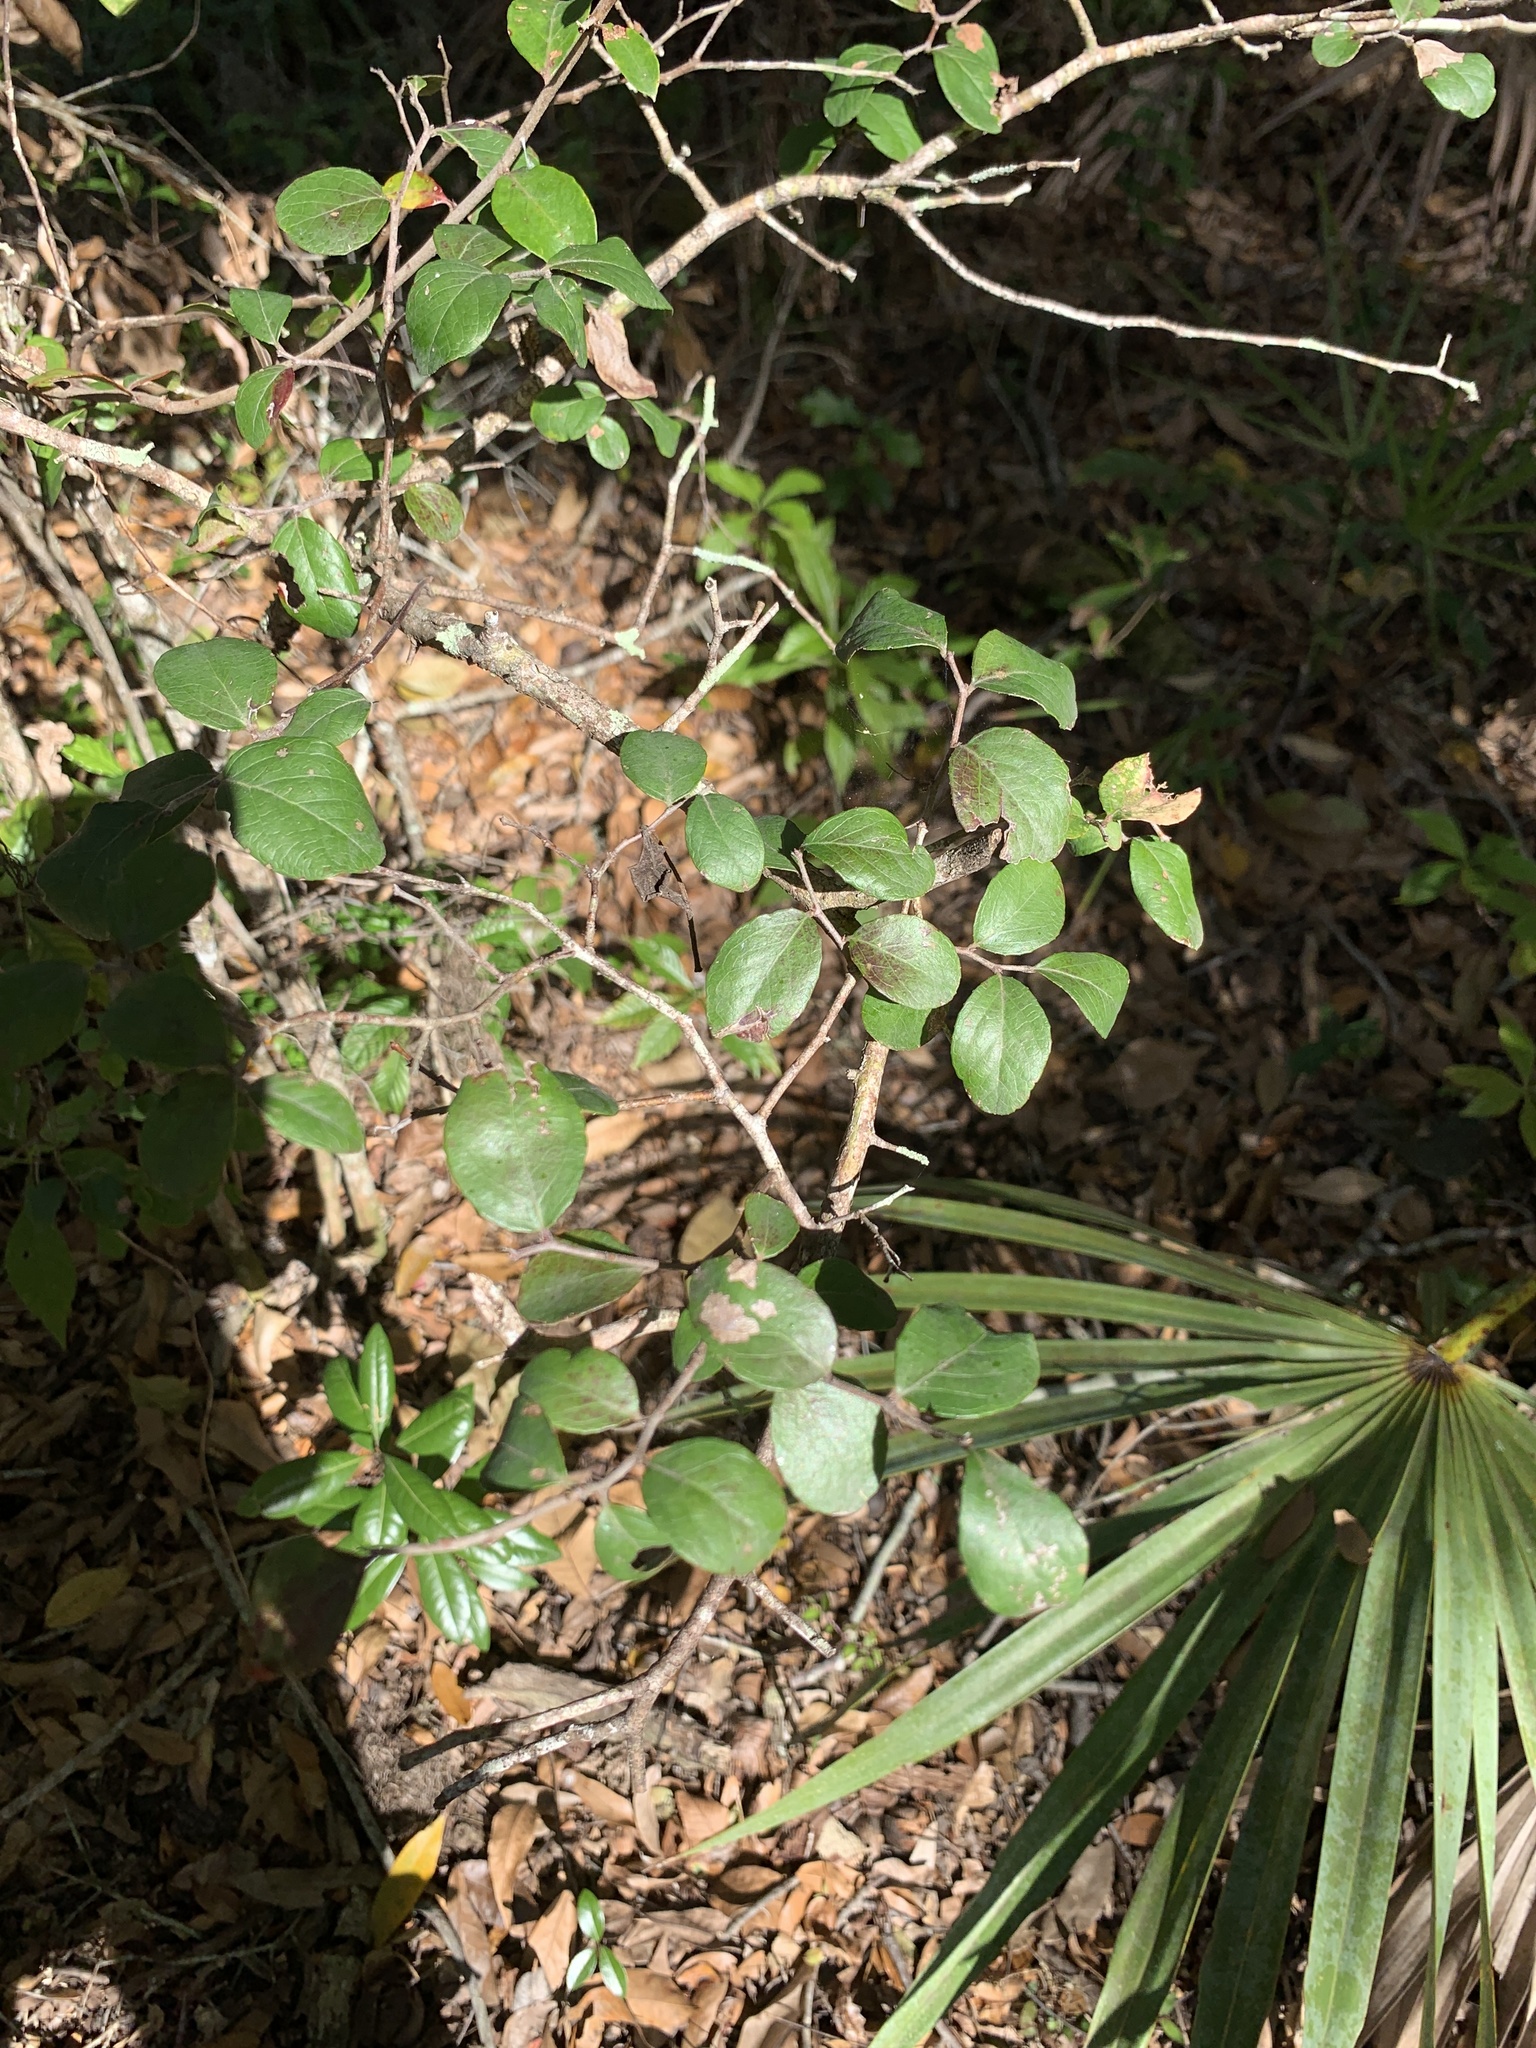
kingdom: Plantae
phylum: Tracheophyta
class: Magnoliopsida
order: Ericales
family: Ericaceae
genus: Vaccinium
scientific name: Vaccinium arboreum
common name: Farkleberry
